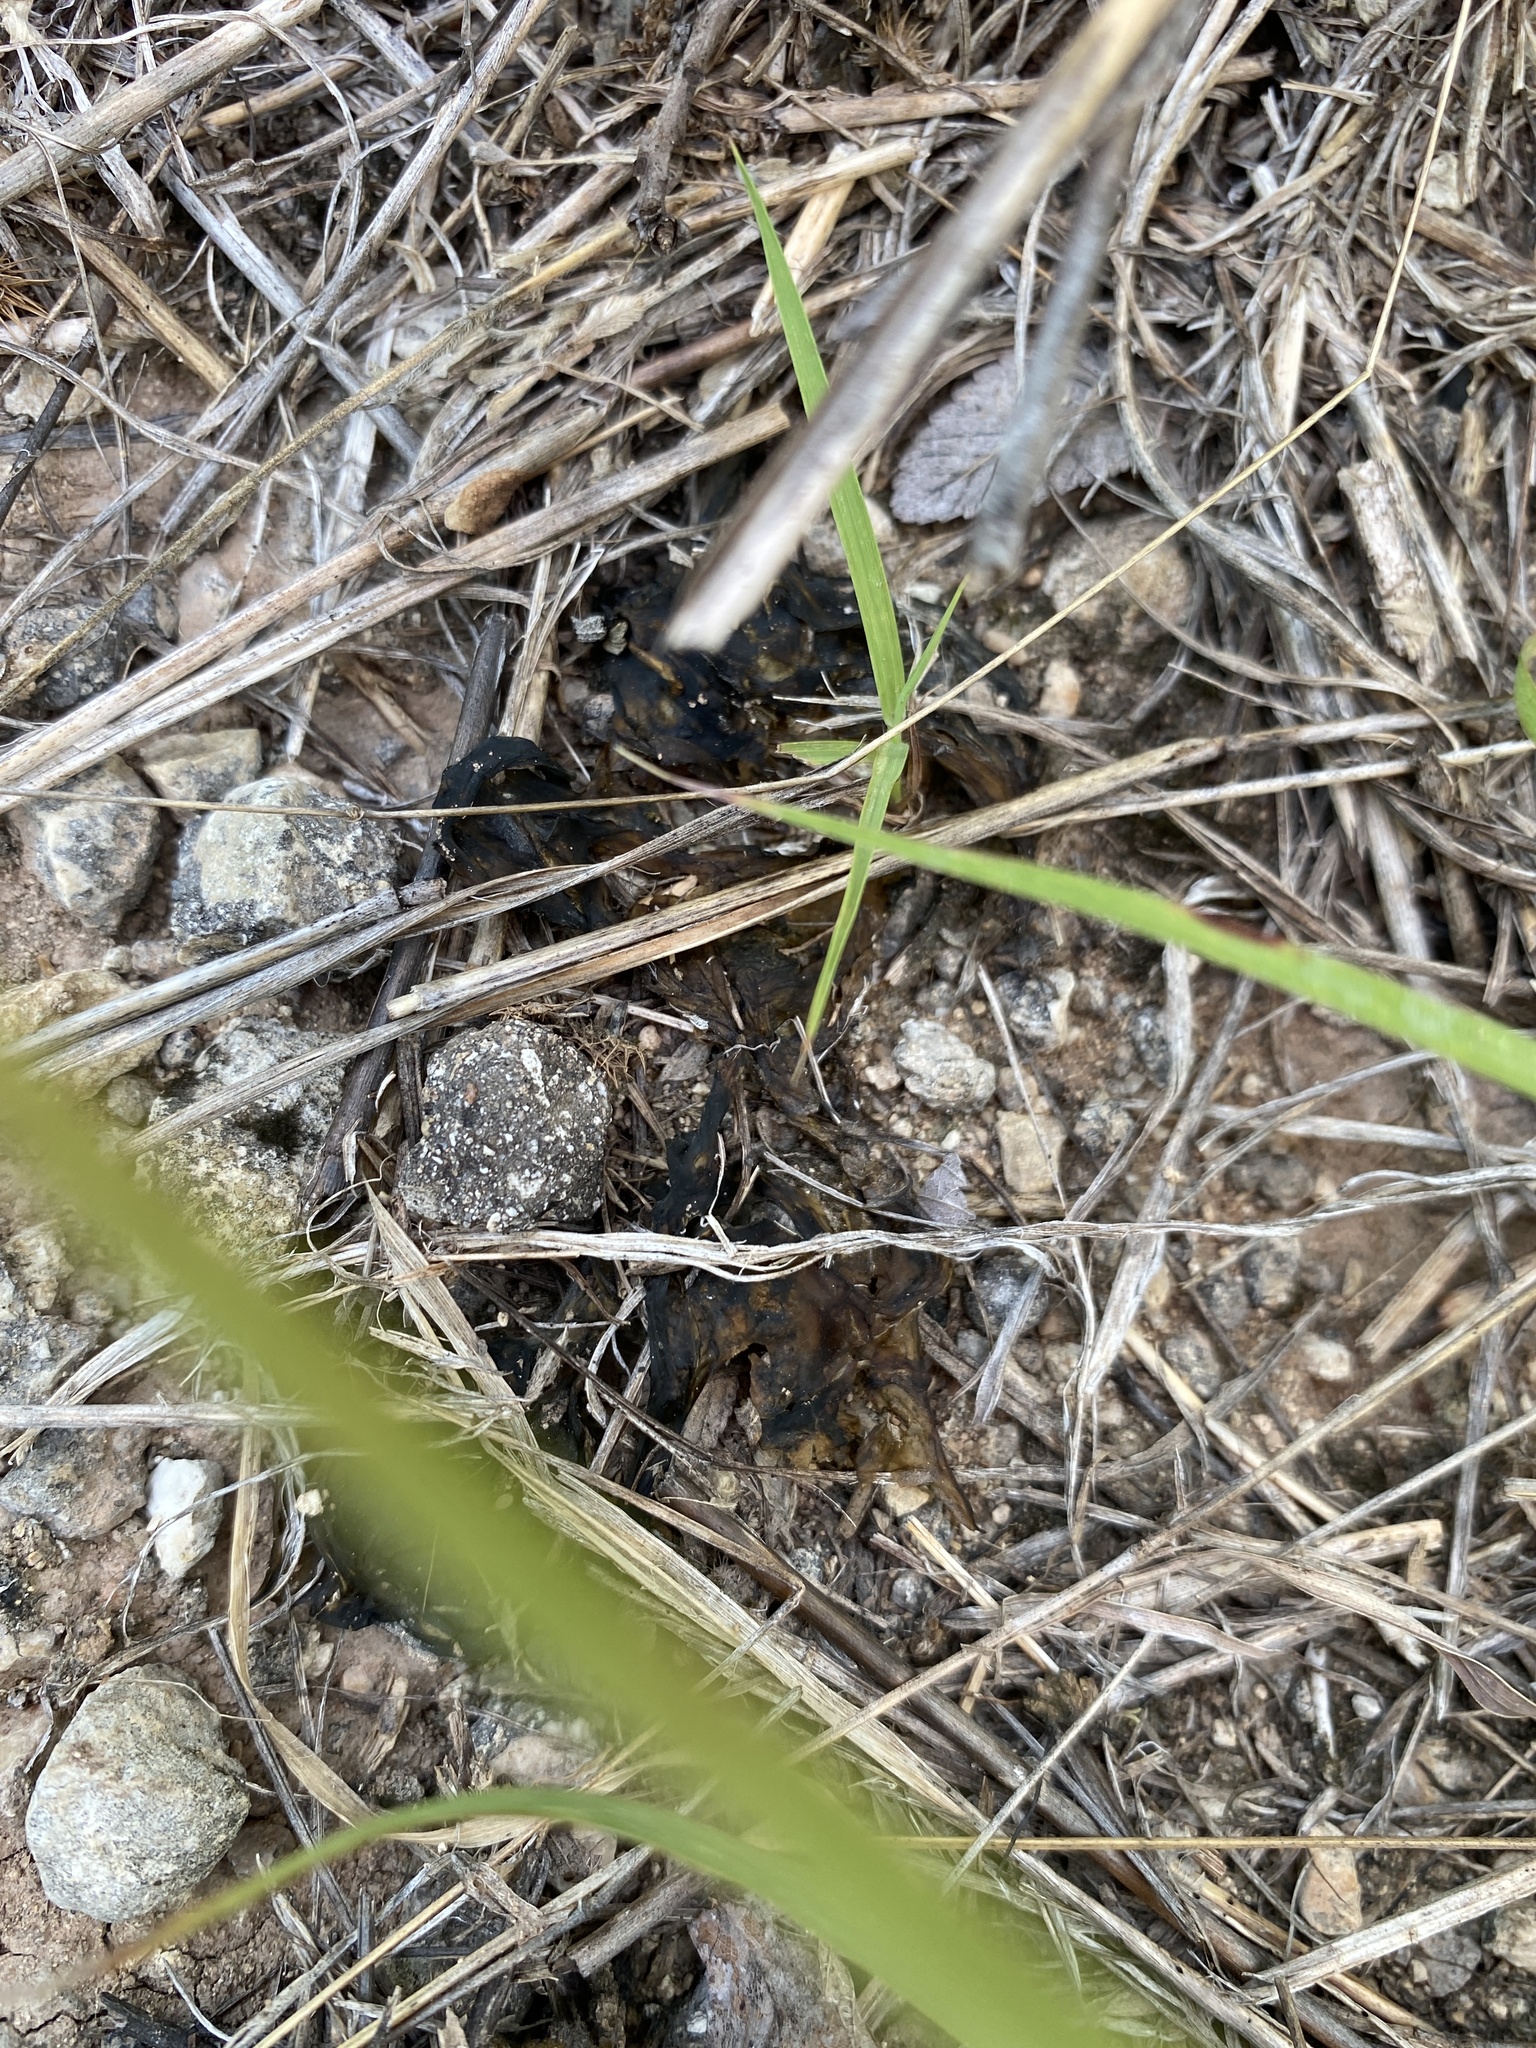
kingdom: Bacteria
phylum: Cyanobacteria
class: Cyanobacteriia
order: Cyanobacteriales
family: Nostocaceae
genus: Nostoc
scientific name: Nostoc commune
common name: Star jelly
